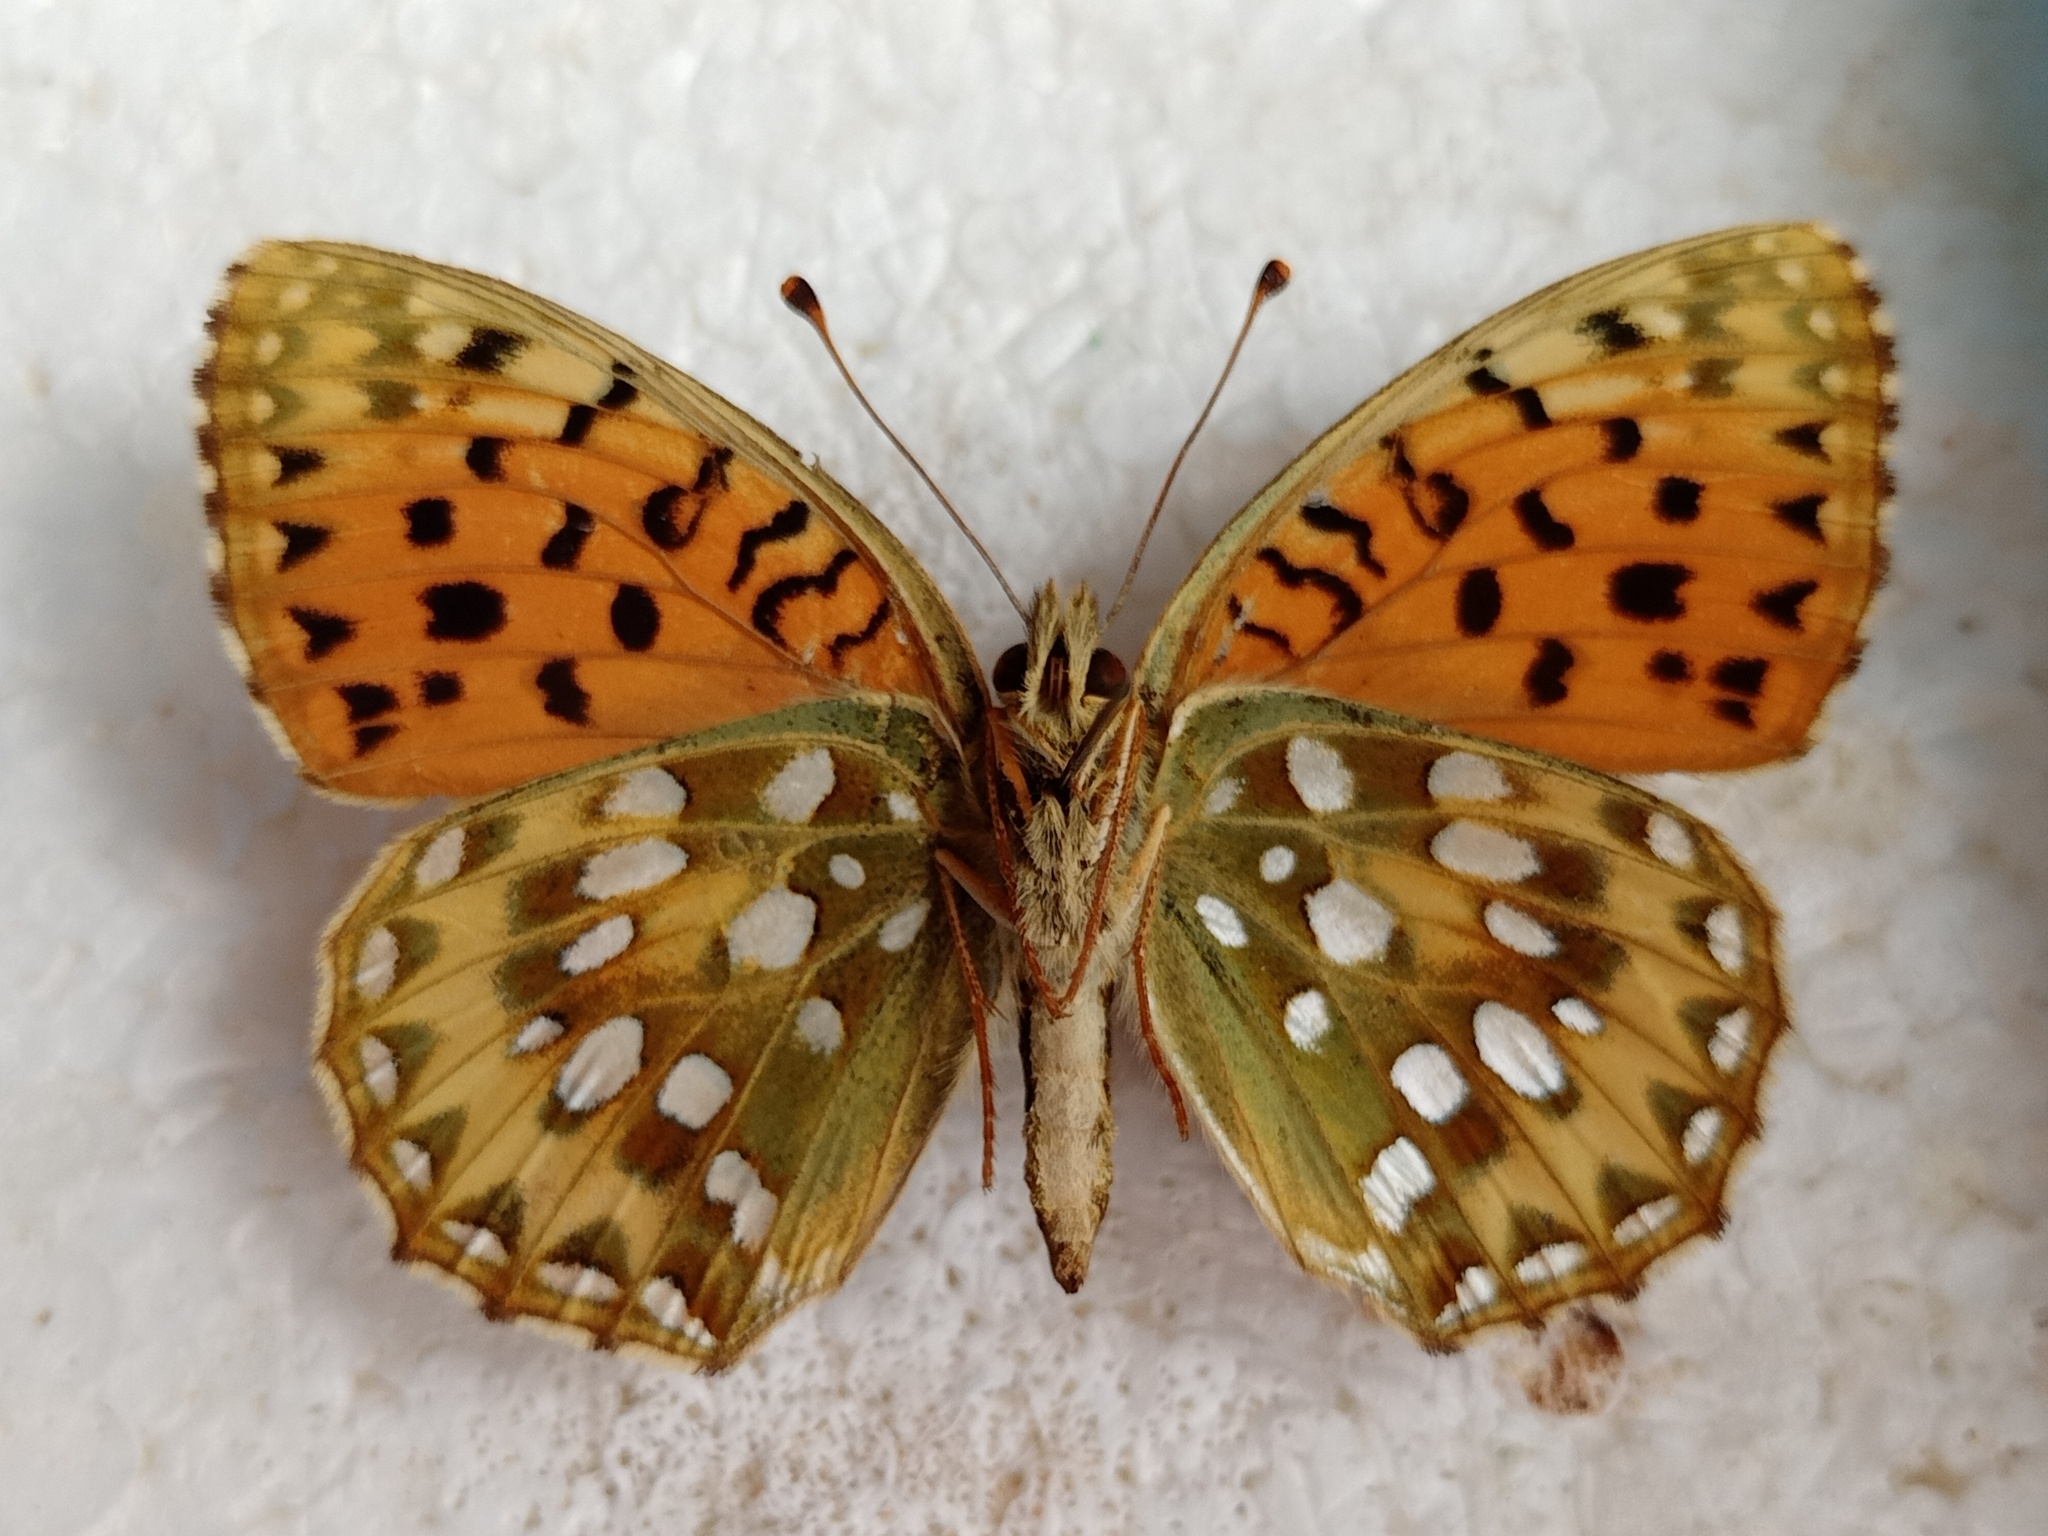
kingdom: Animalia
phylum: Arthropoda
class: Insecta
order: Lepidoptera
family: Nymphalidae
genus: Speyeria
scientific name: Speyeria aglaja
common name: Dark green fritillary
